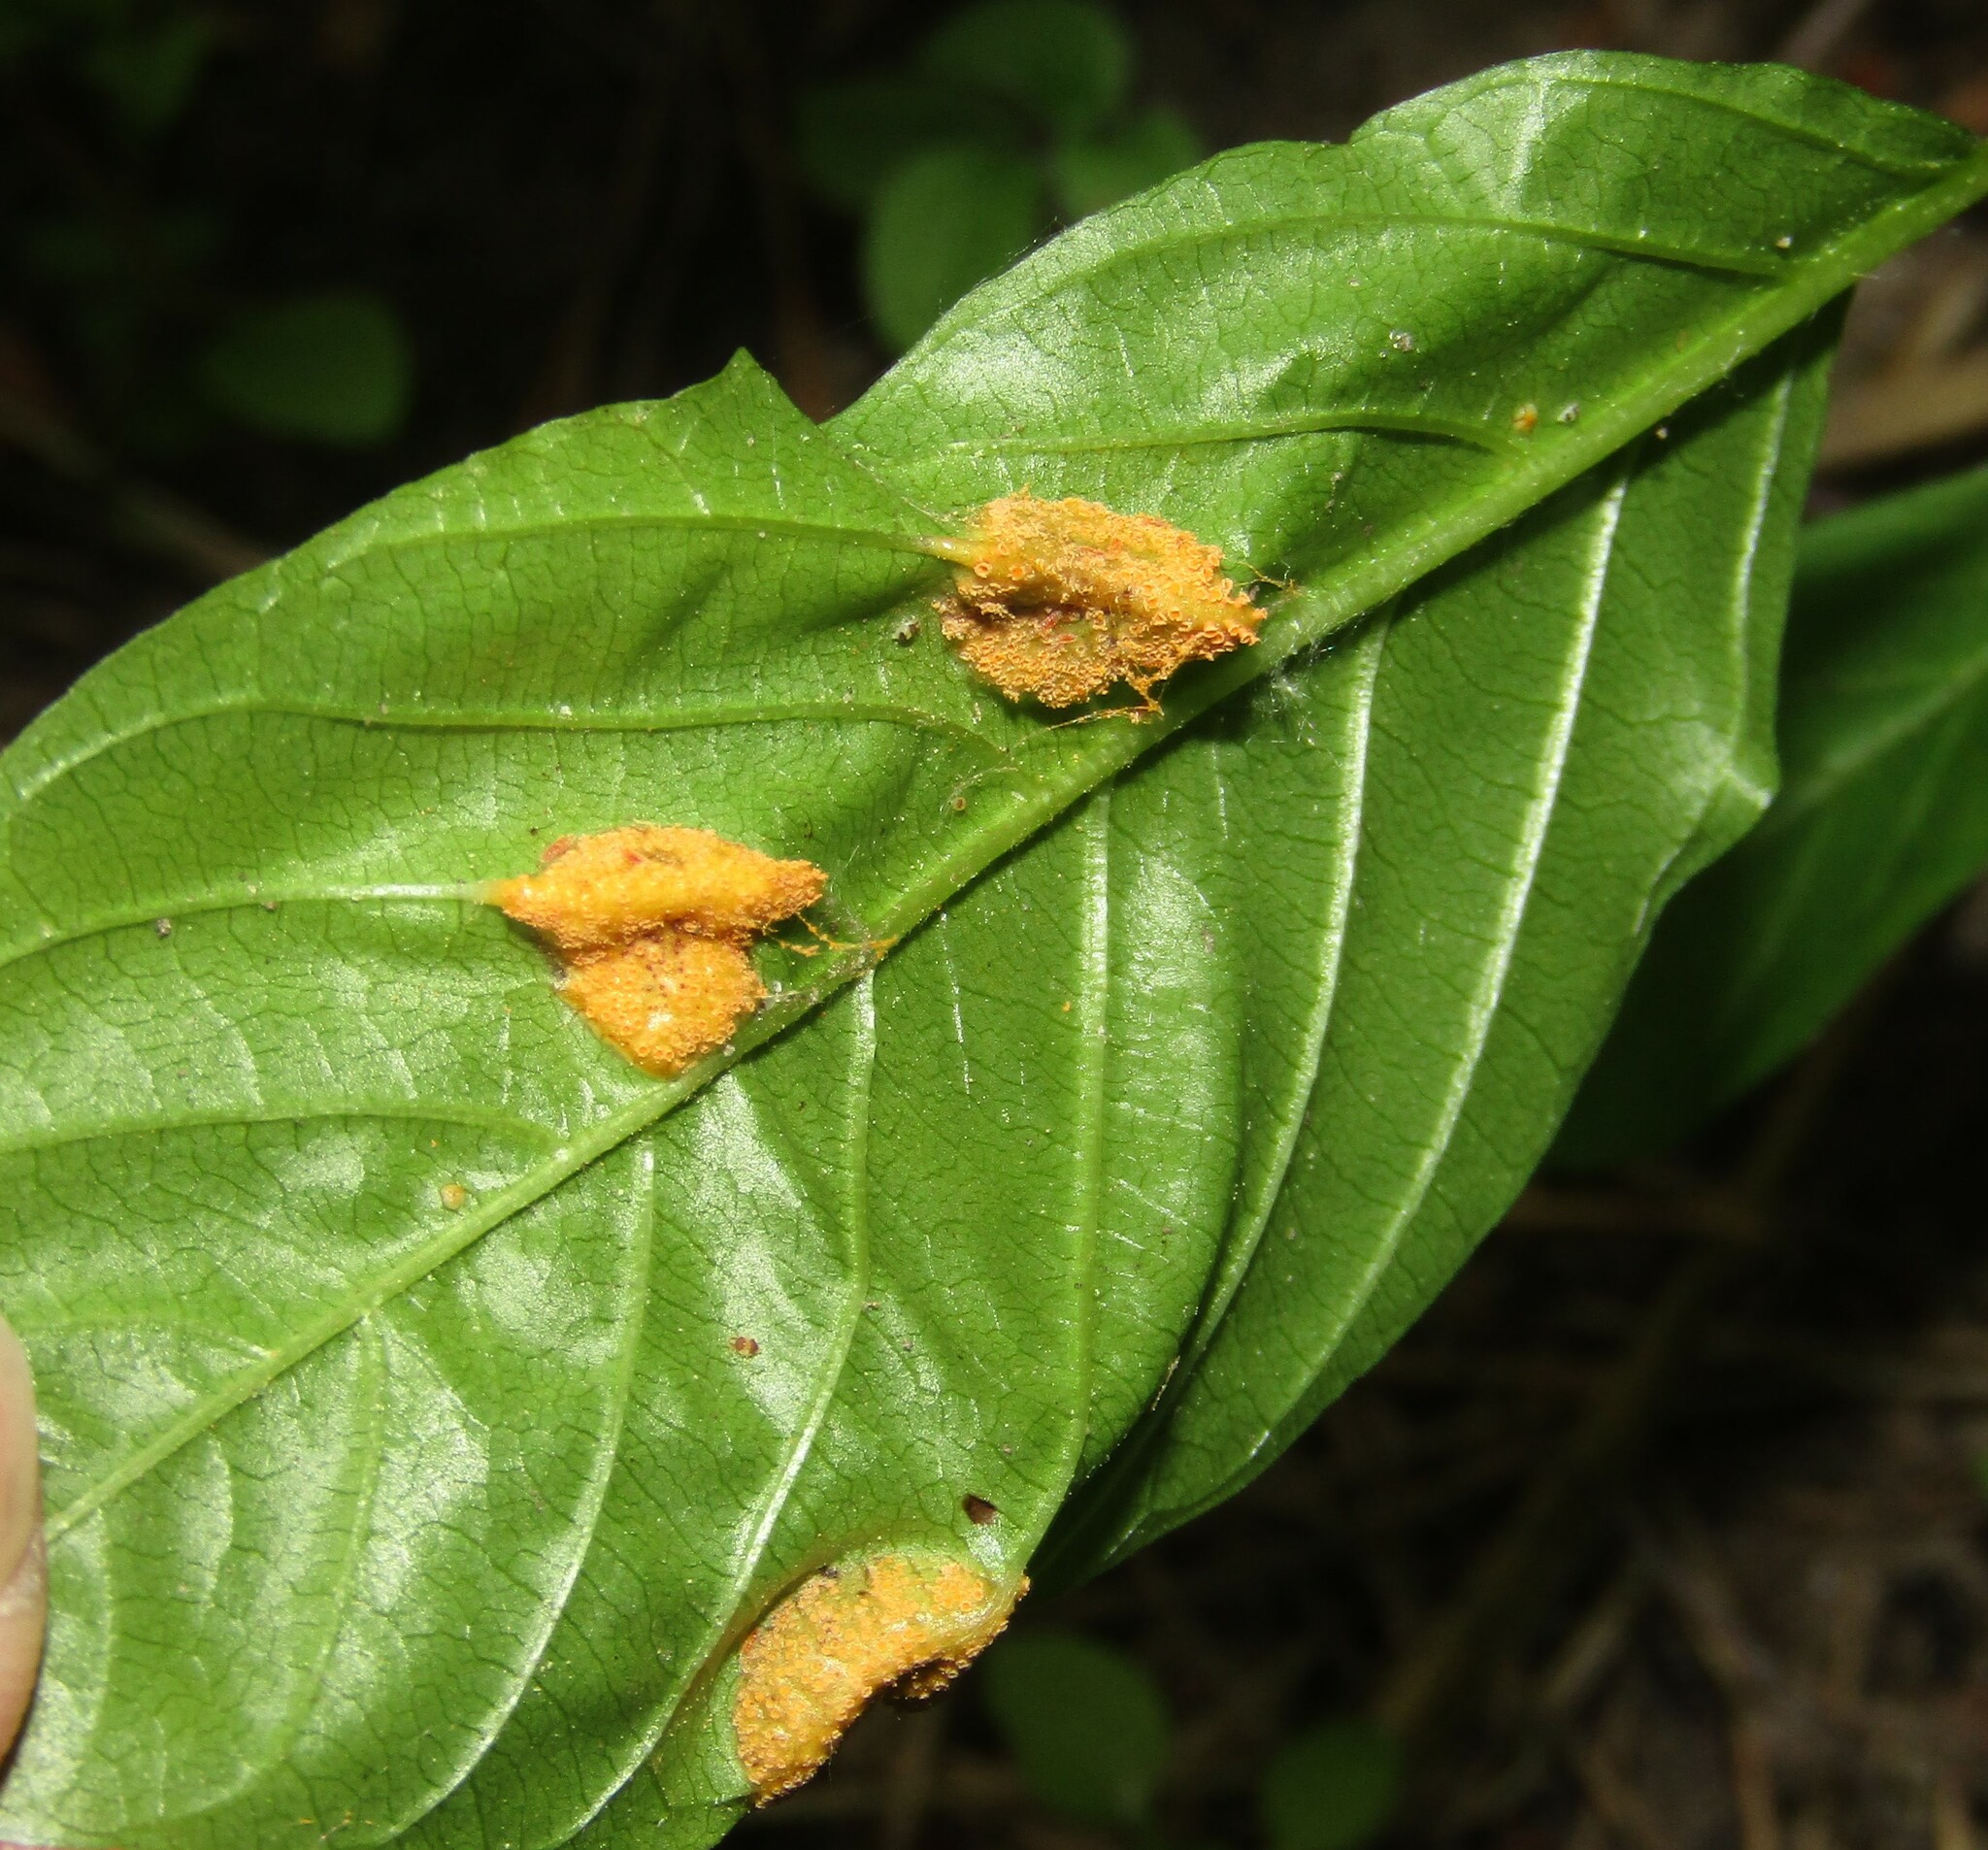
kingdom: Fungi
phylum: Basidiomycota
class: Pucciniomycetes
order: Pucciniales
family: Pucciniaceae
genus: Puccinia
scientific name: Puccinia coronata
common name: Crown rust
